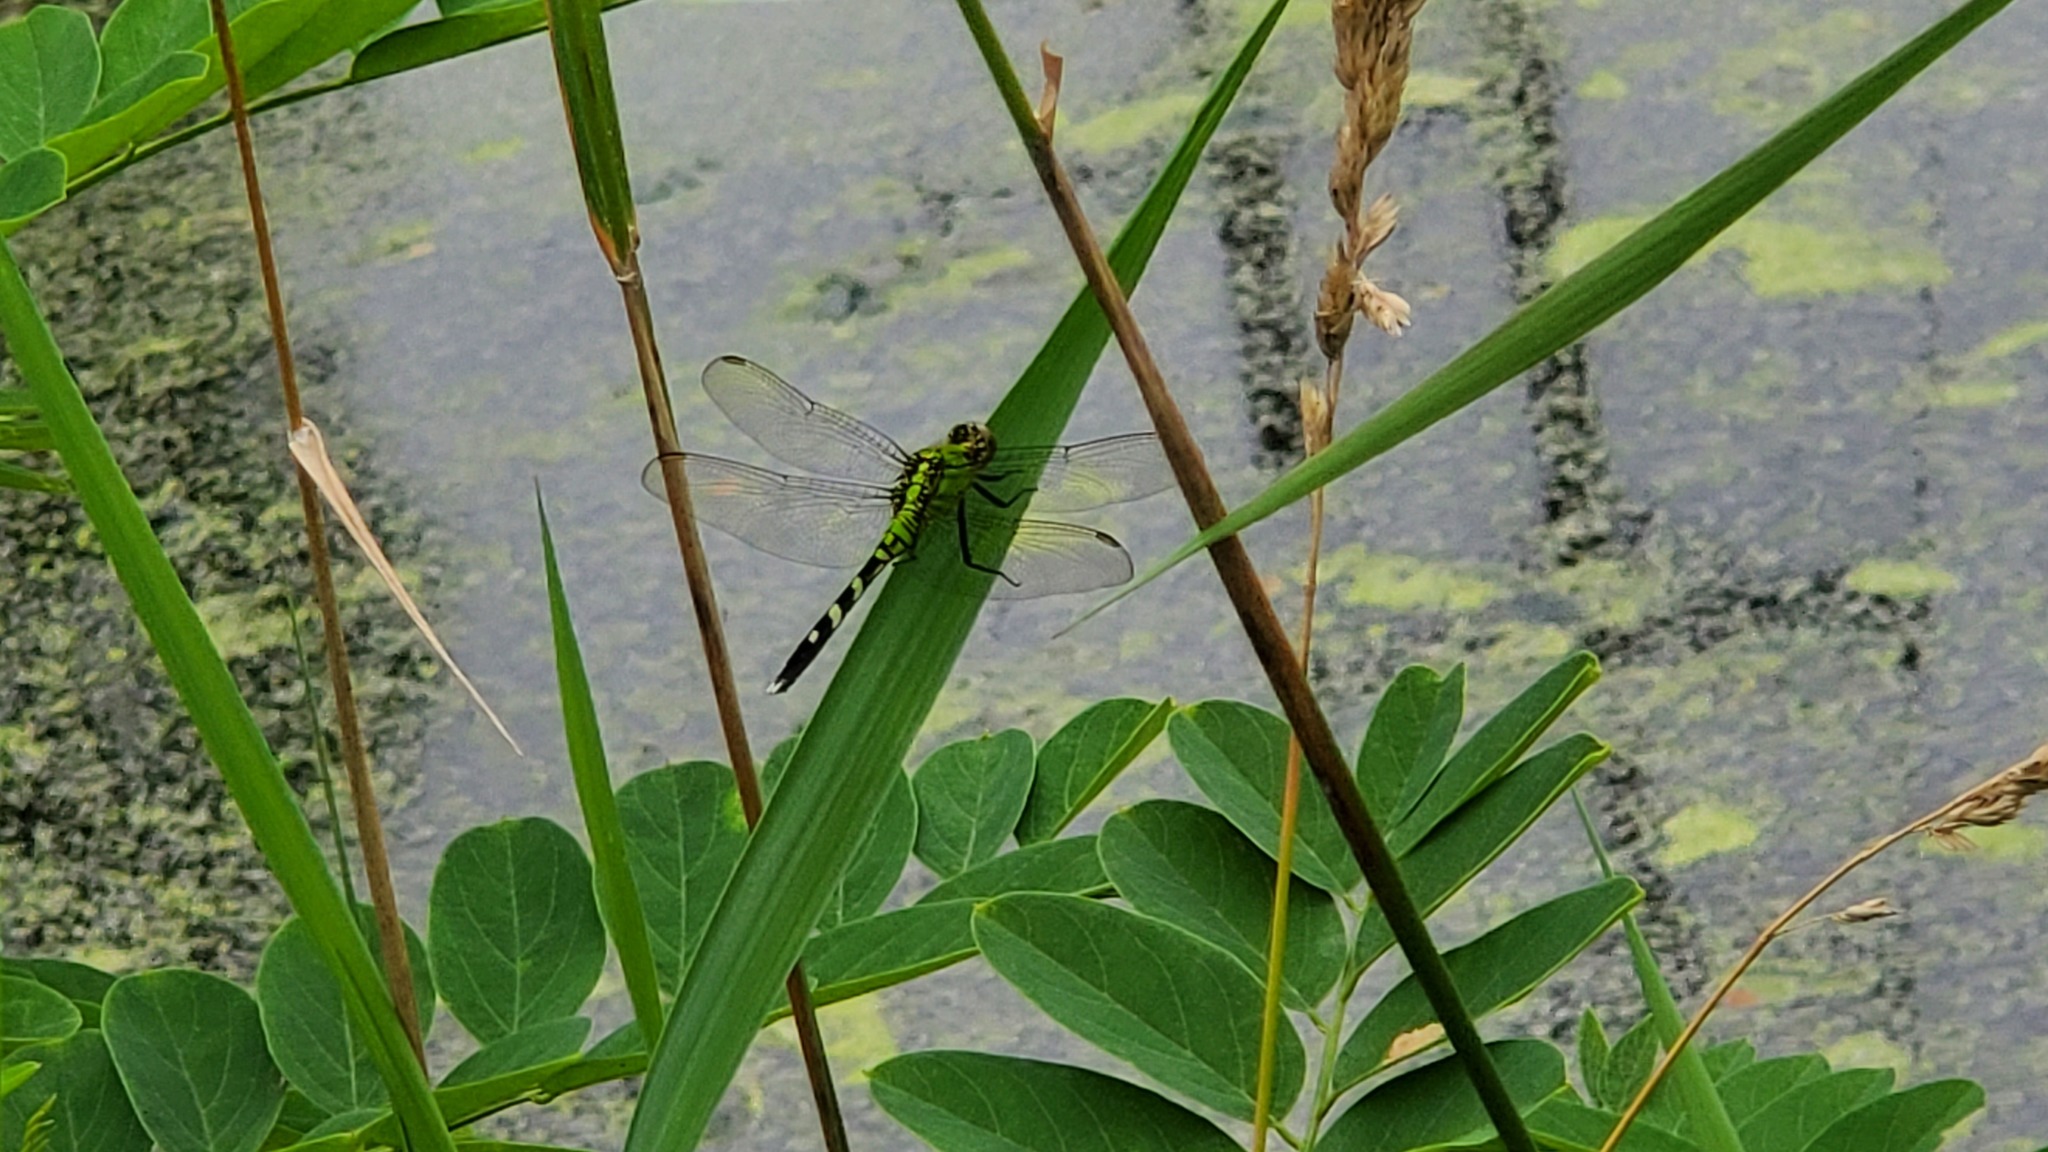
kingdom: Animalia
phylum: Arthropoda
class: Insecta
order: Odonata
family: Libellulidae
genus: Erythemis
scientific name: Erythemis simplicicollis
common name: Eastern pondhawk
